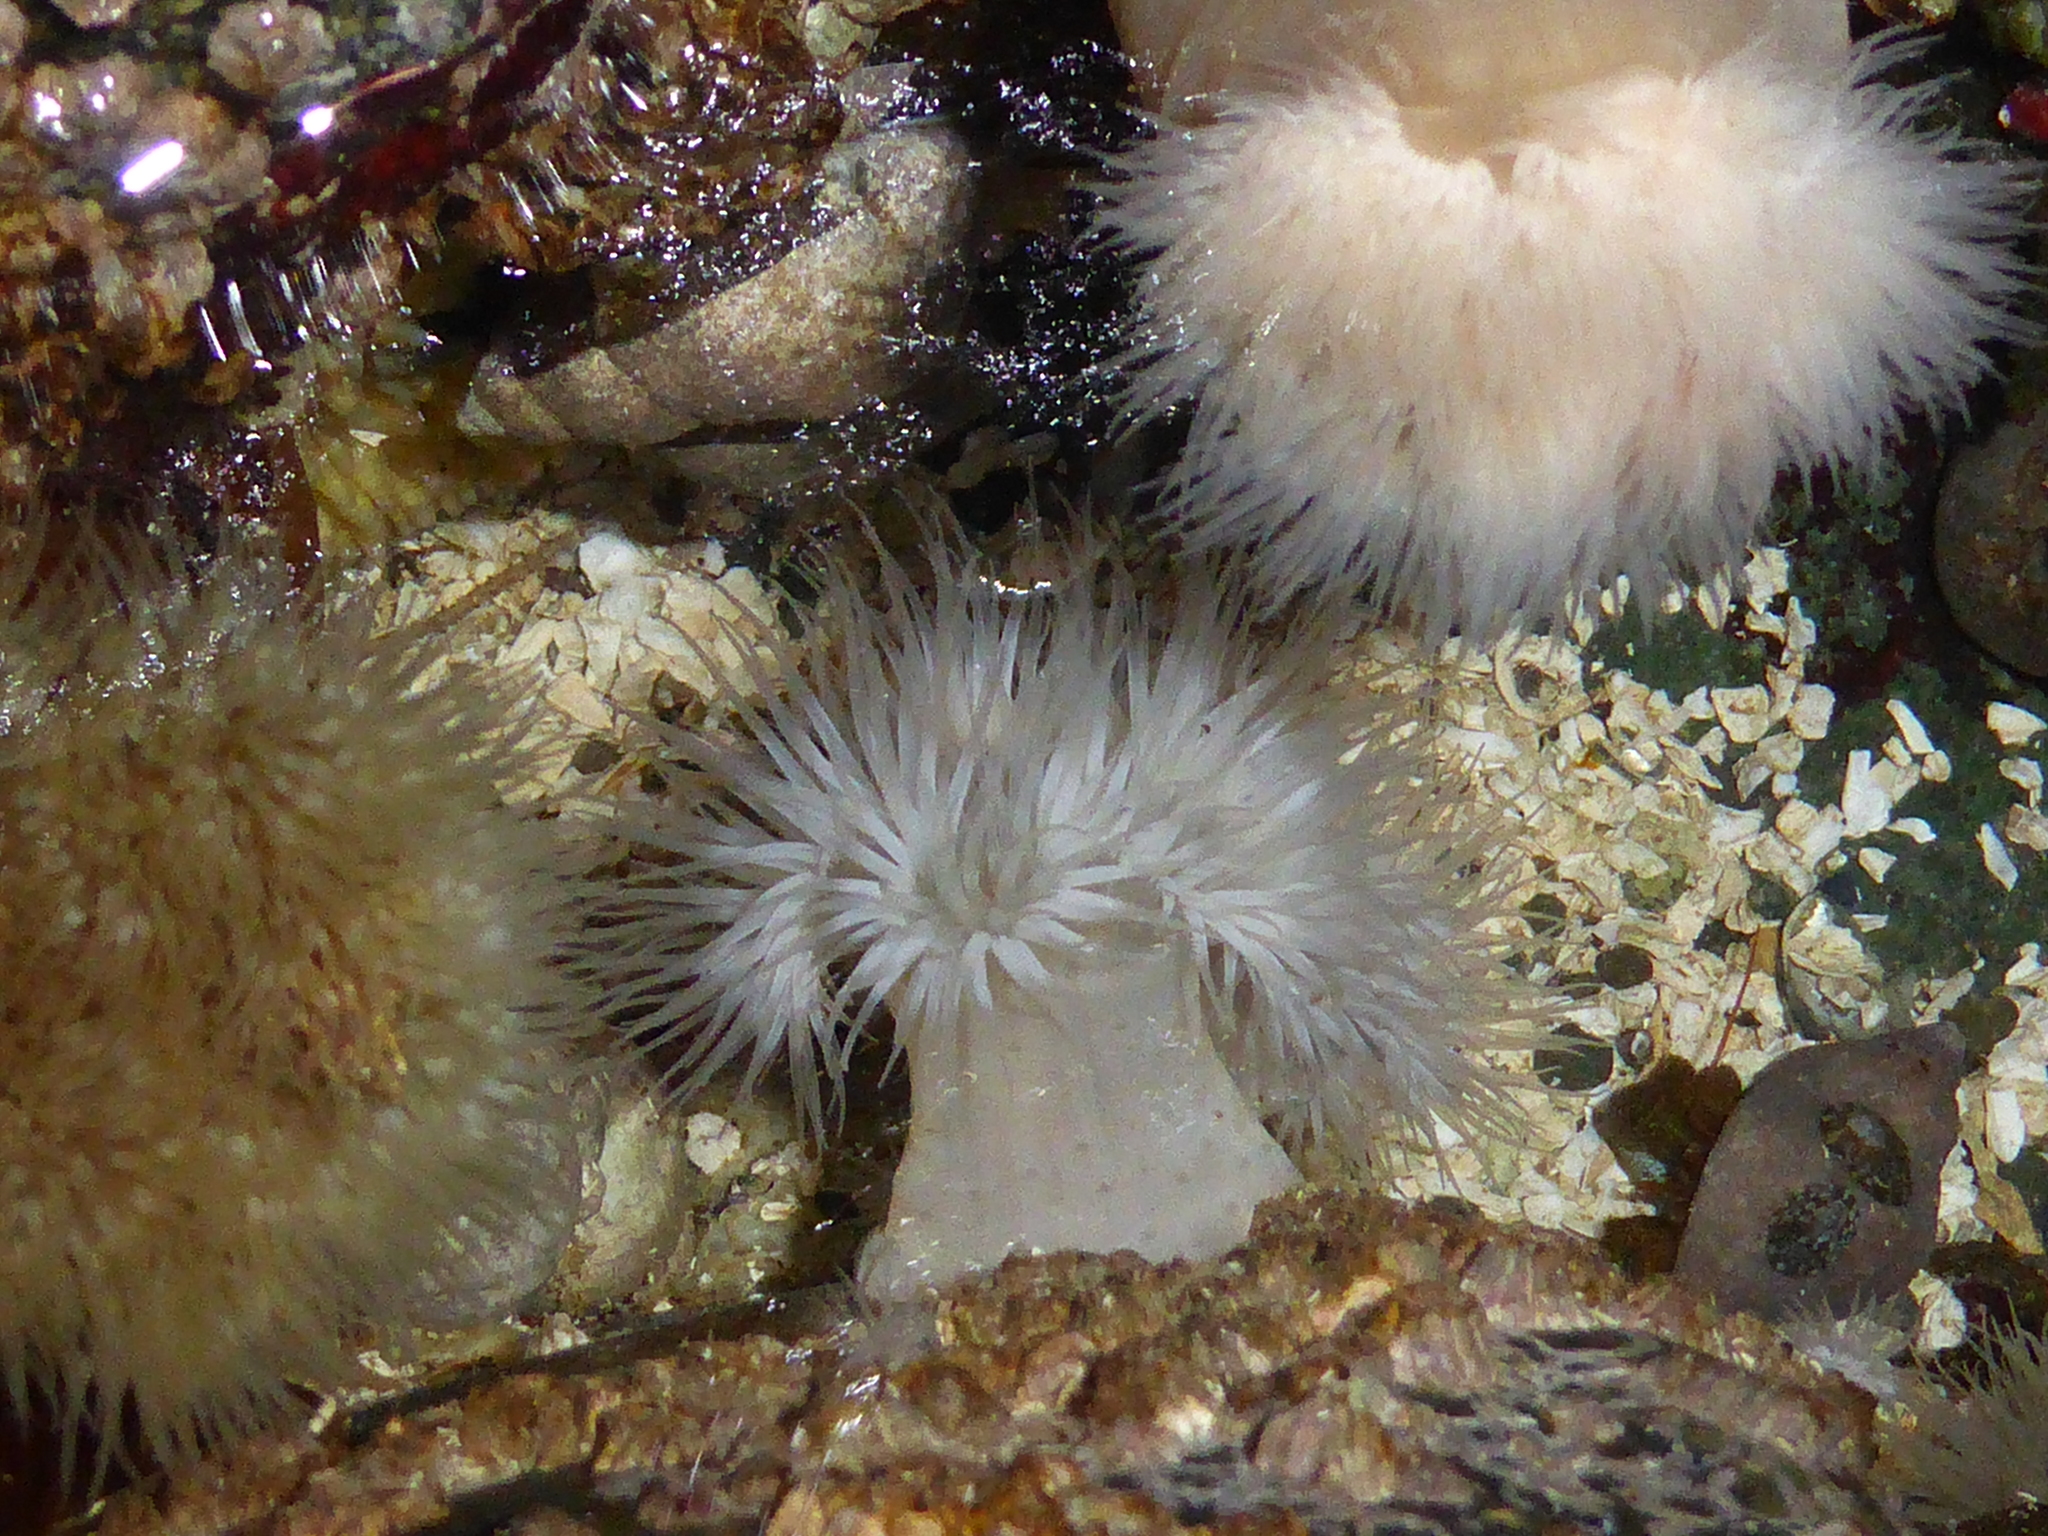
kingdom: Animalia
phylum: Cnidaria
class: Anthozoa
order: Actiniaria
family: Metridiidae
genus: Metridium
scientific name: Metridium senile
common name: Clonal plumose anemone
